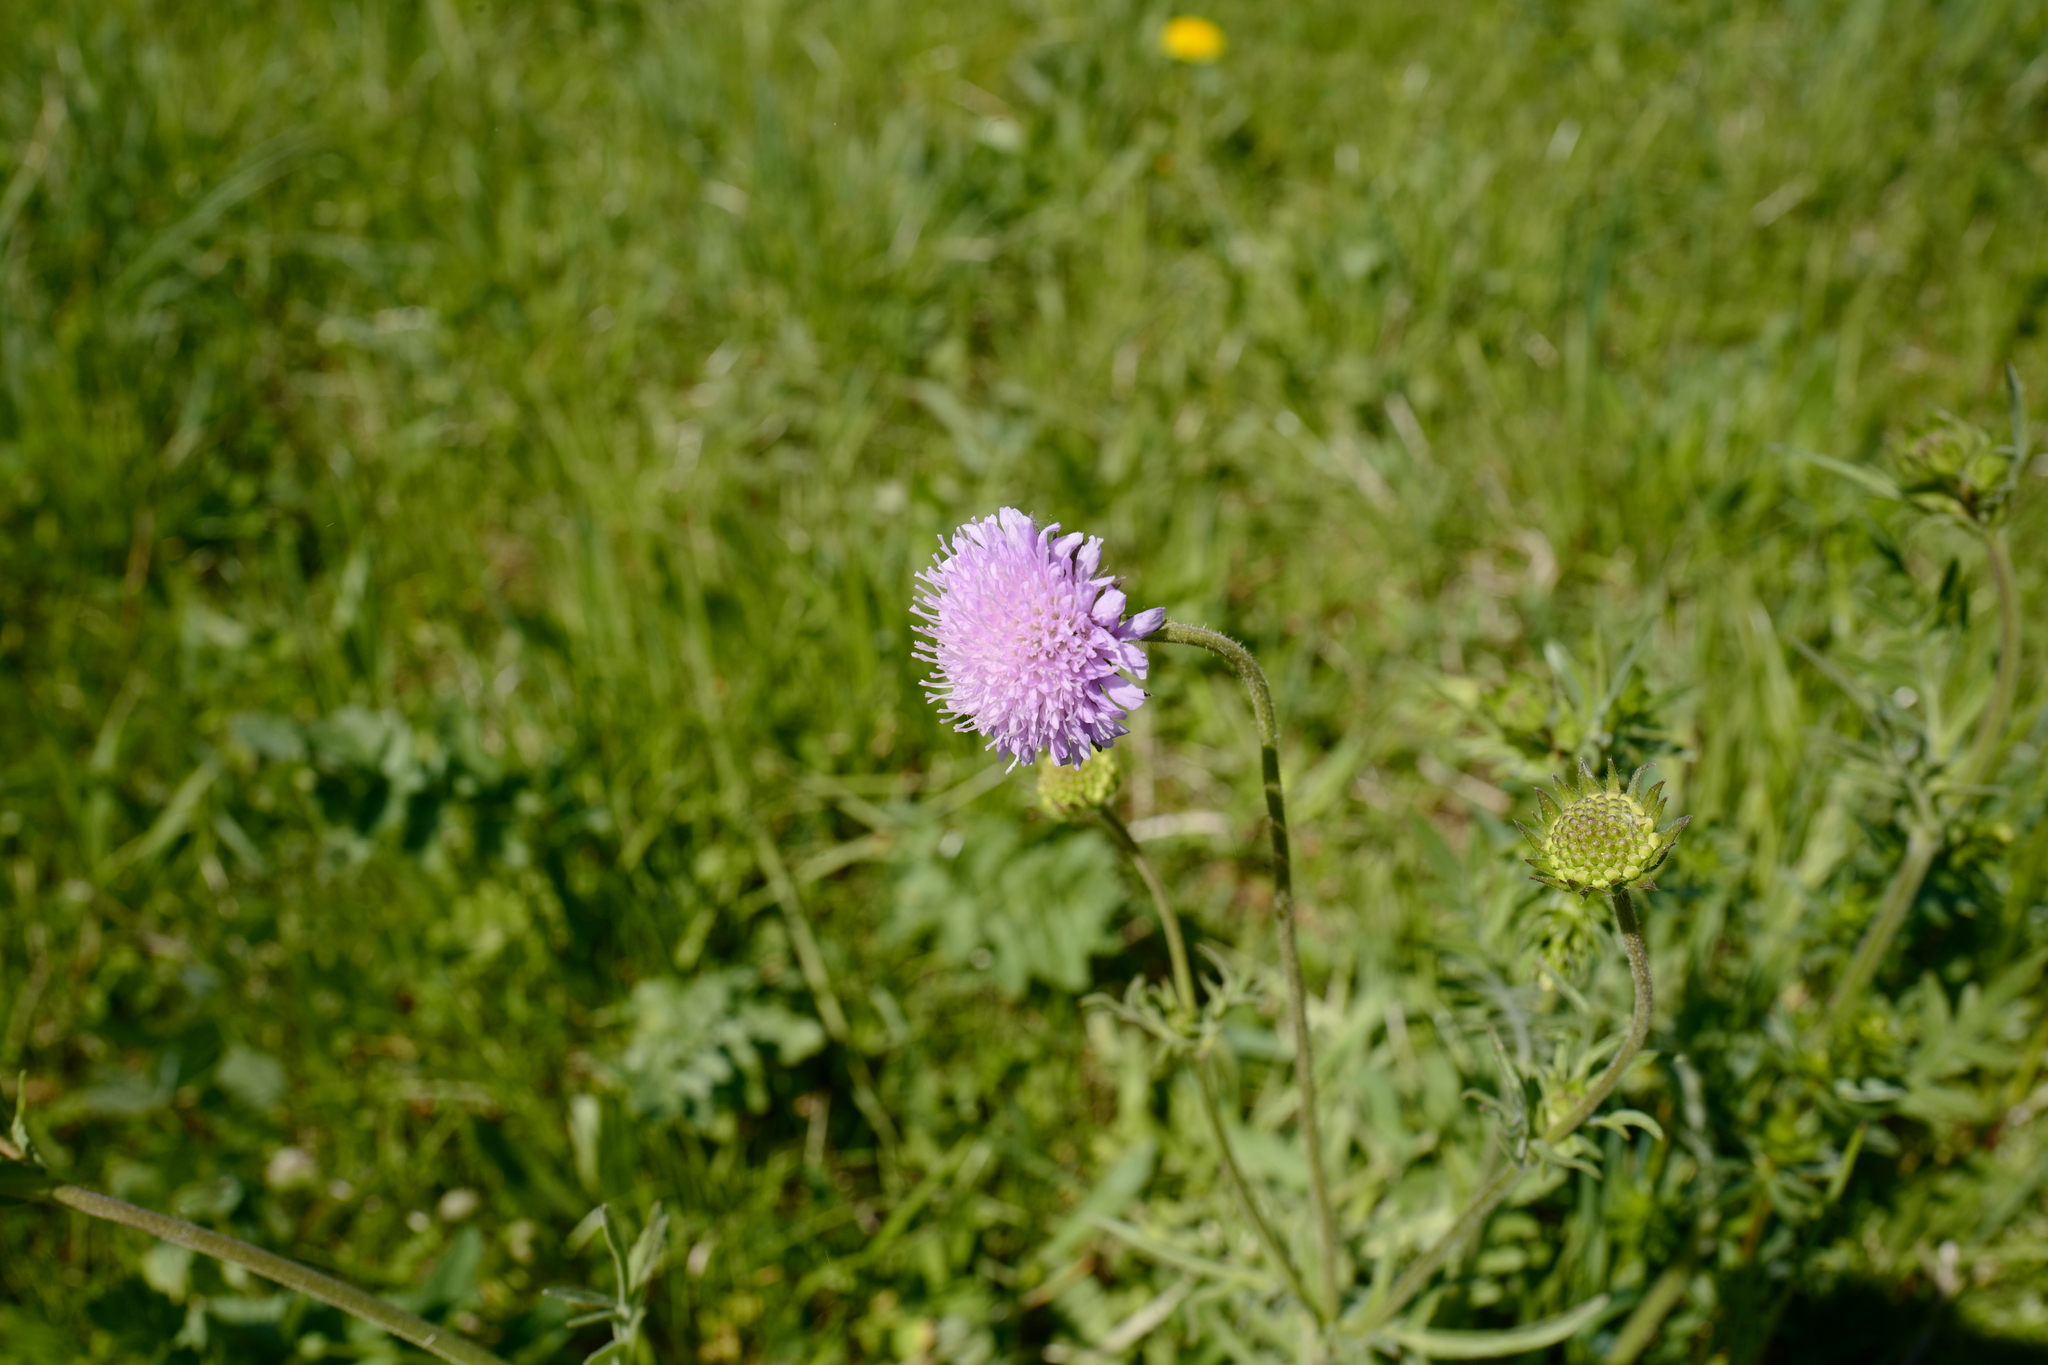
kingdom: Plantae
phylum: Tracheophyta
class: Magnoliopsida
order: Dipsacales
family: Caprifoliaceae
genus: Knautia
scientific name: Knautia arvensis
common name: Field scabiosa
